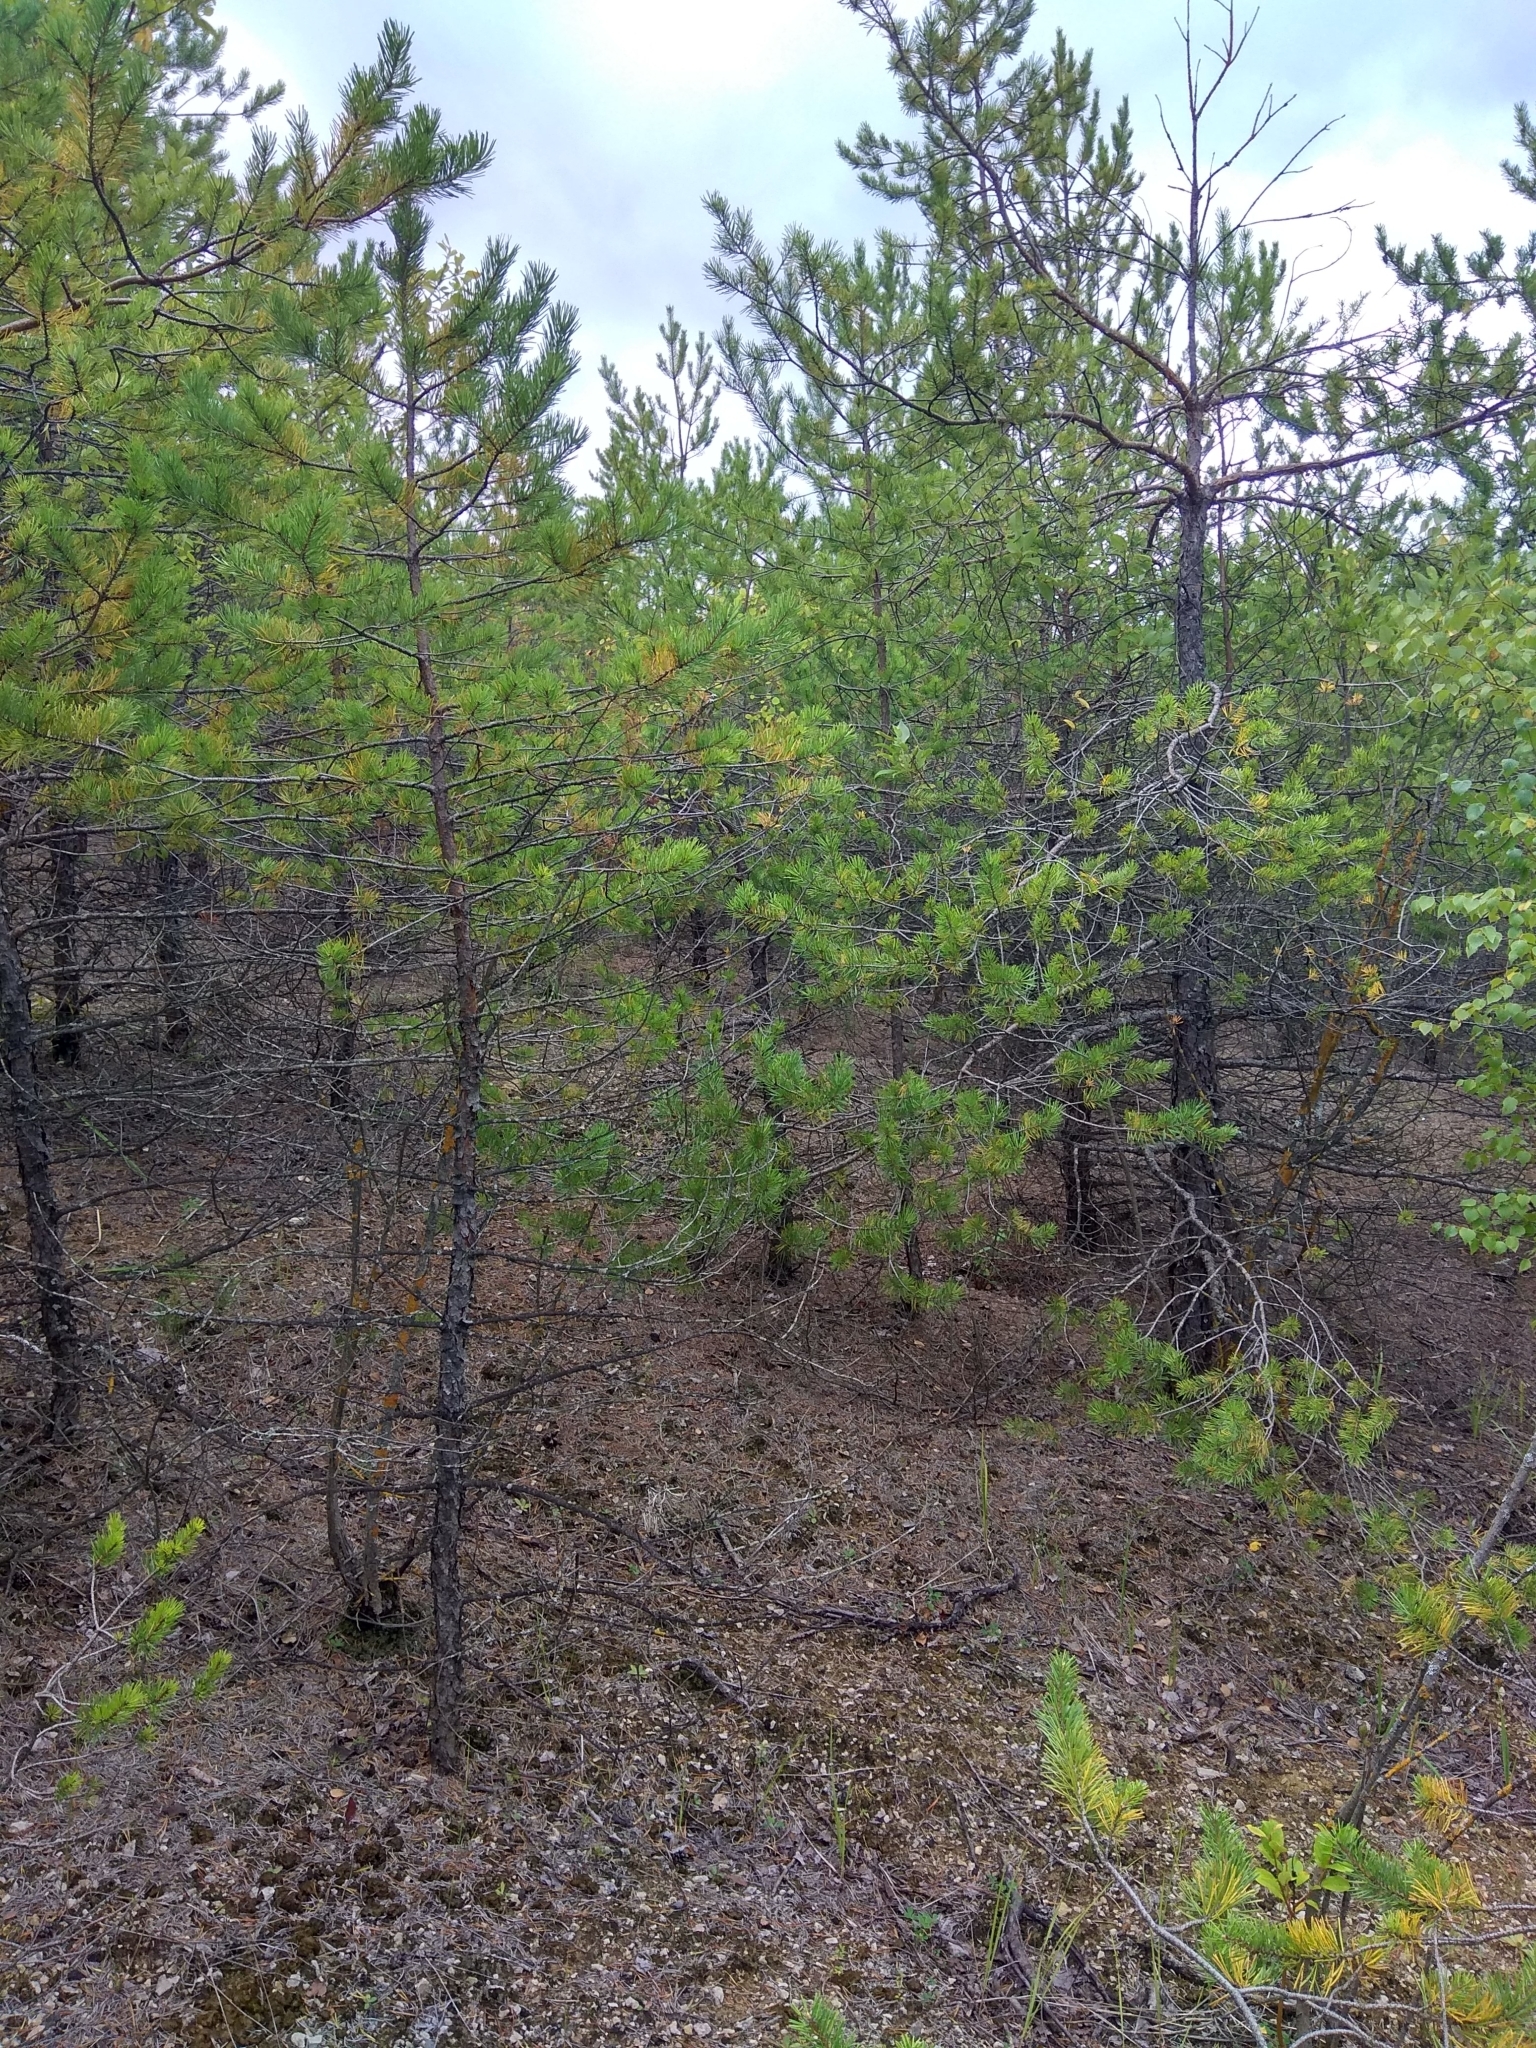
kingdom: Plantae
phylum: Tracheophyta
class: Pinopsida
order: Pinales
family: Pinaceae
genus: Pinus
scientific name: Pinus sylvestris
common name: Scots pine
